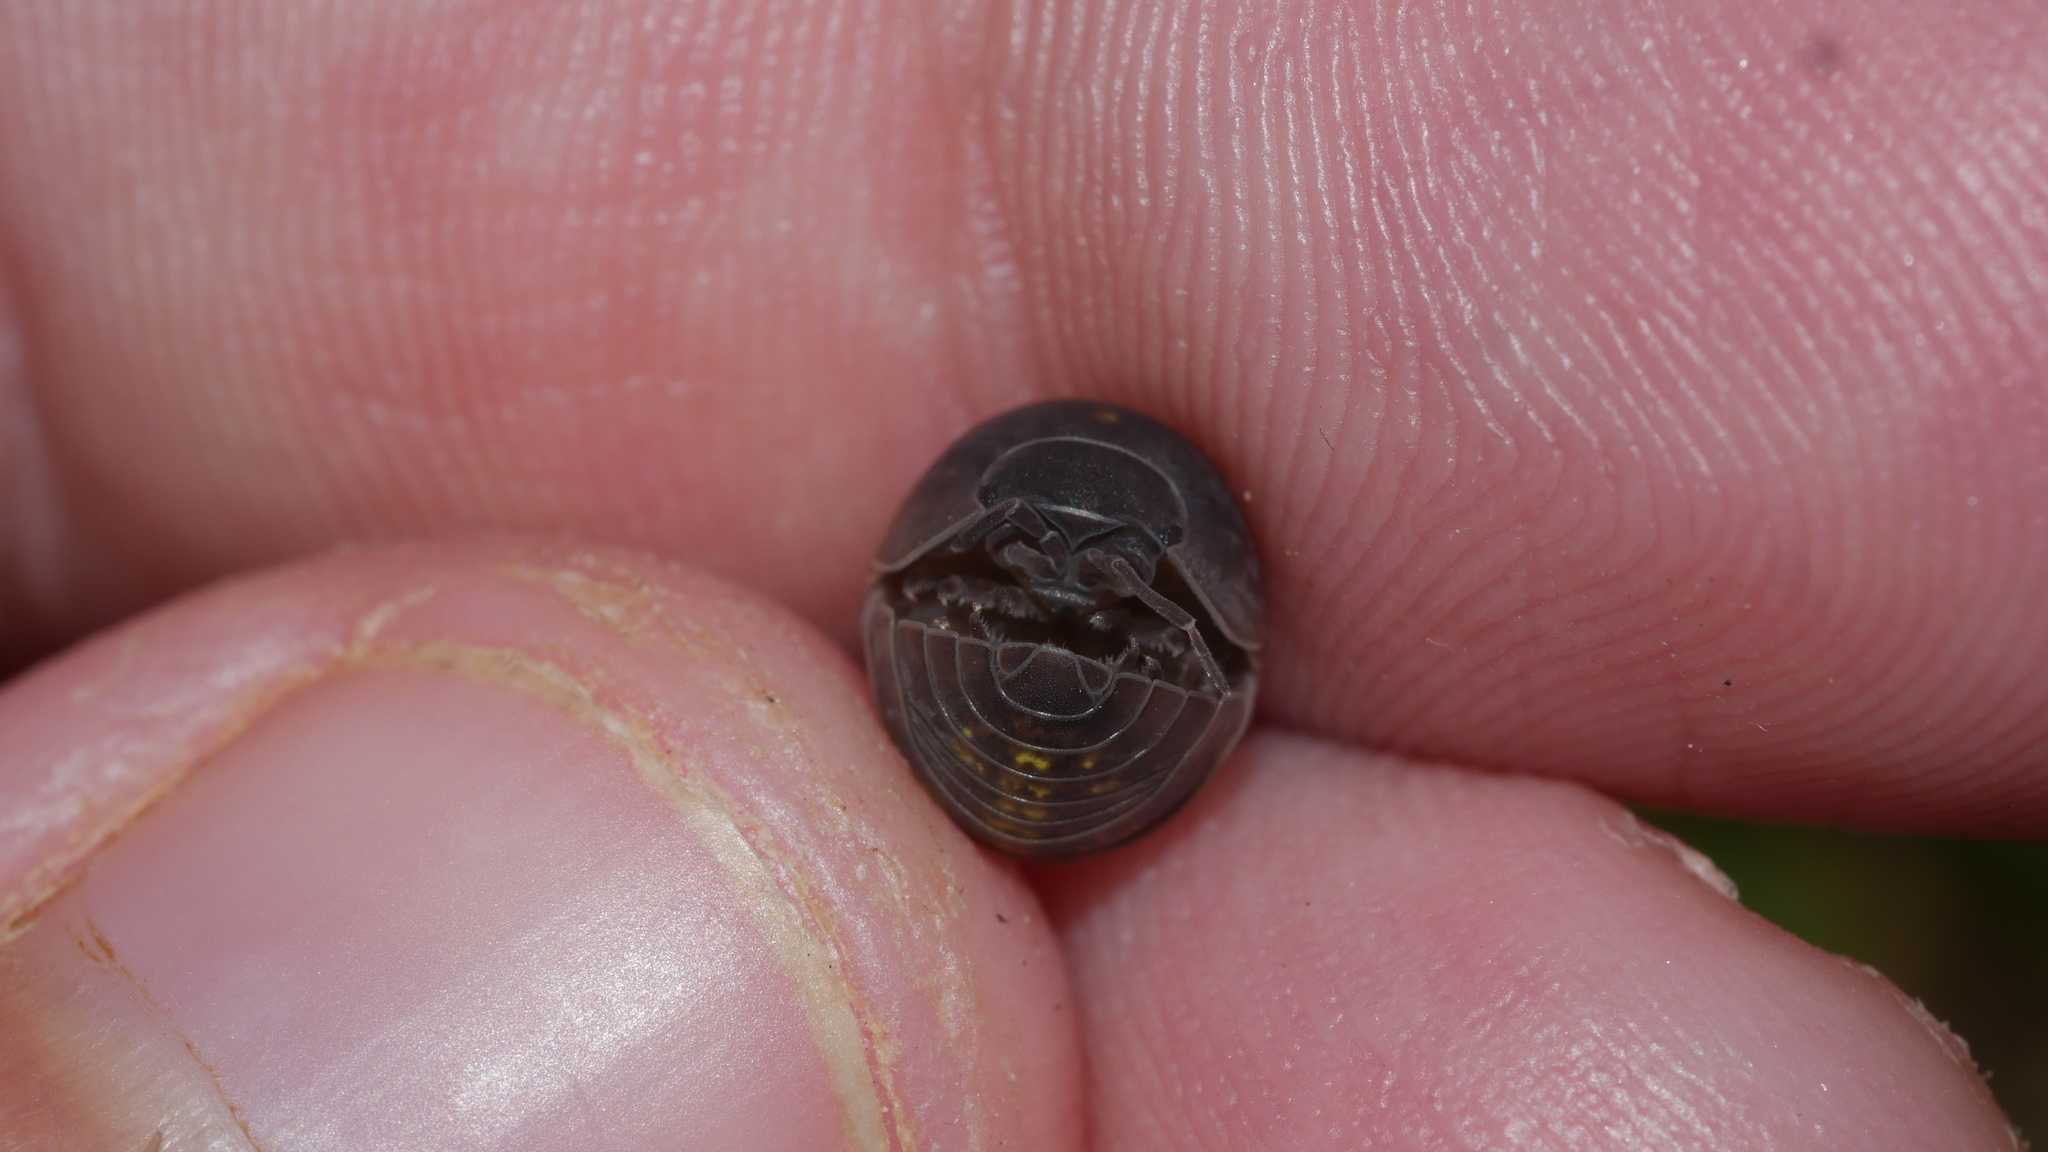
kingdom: Animalia
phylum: Arthropoda
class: Malacostraca
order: Isopoda
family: Armadillidiidae
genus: Armadillidium
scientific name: Armadillidium vulgare
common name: Common pill woodlouse
